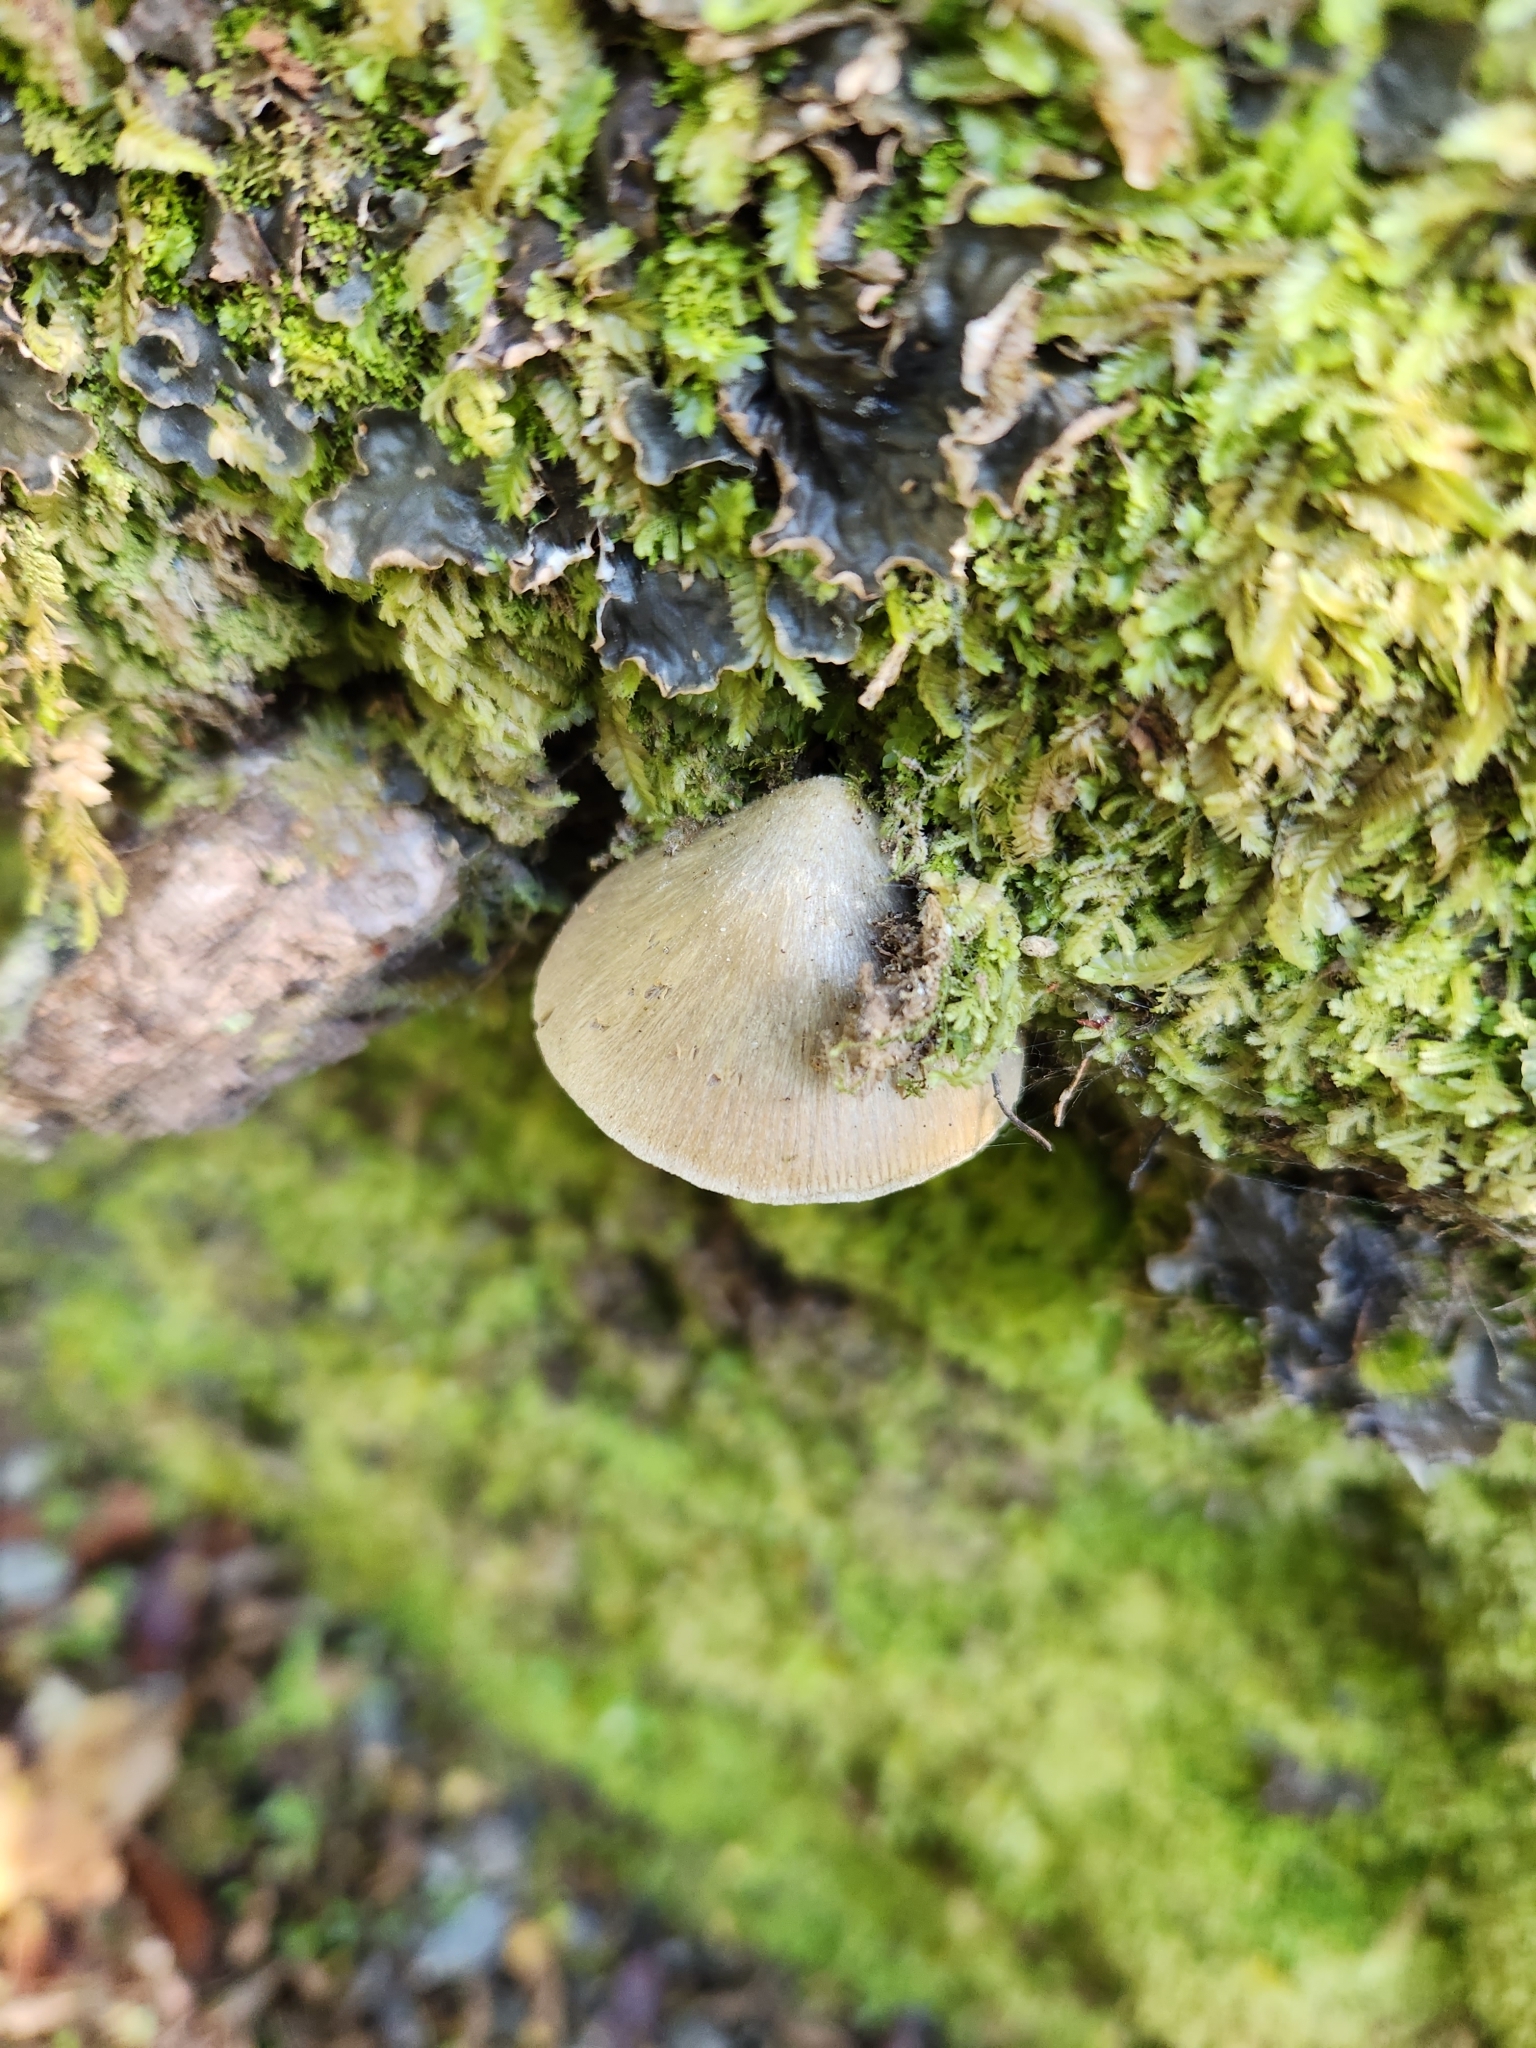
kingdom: Fungi
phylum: Basidiomycota
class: Agaricomycetes
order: Agaricales
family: Entolomataceae
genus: Entoloma
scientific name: Entoloma canoconicum
